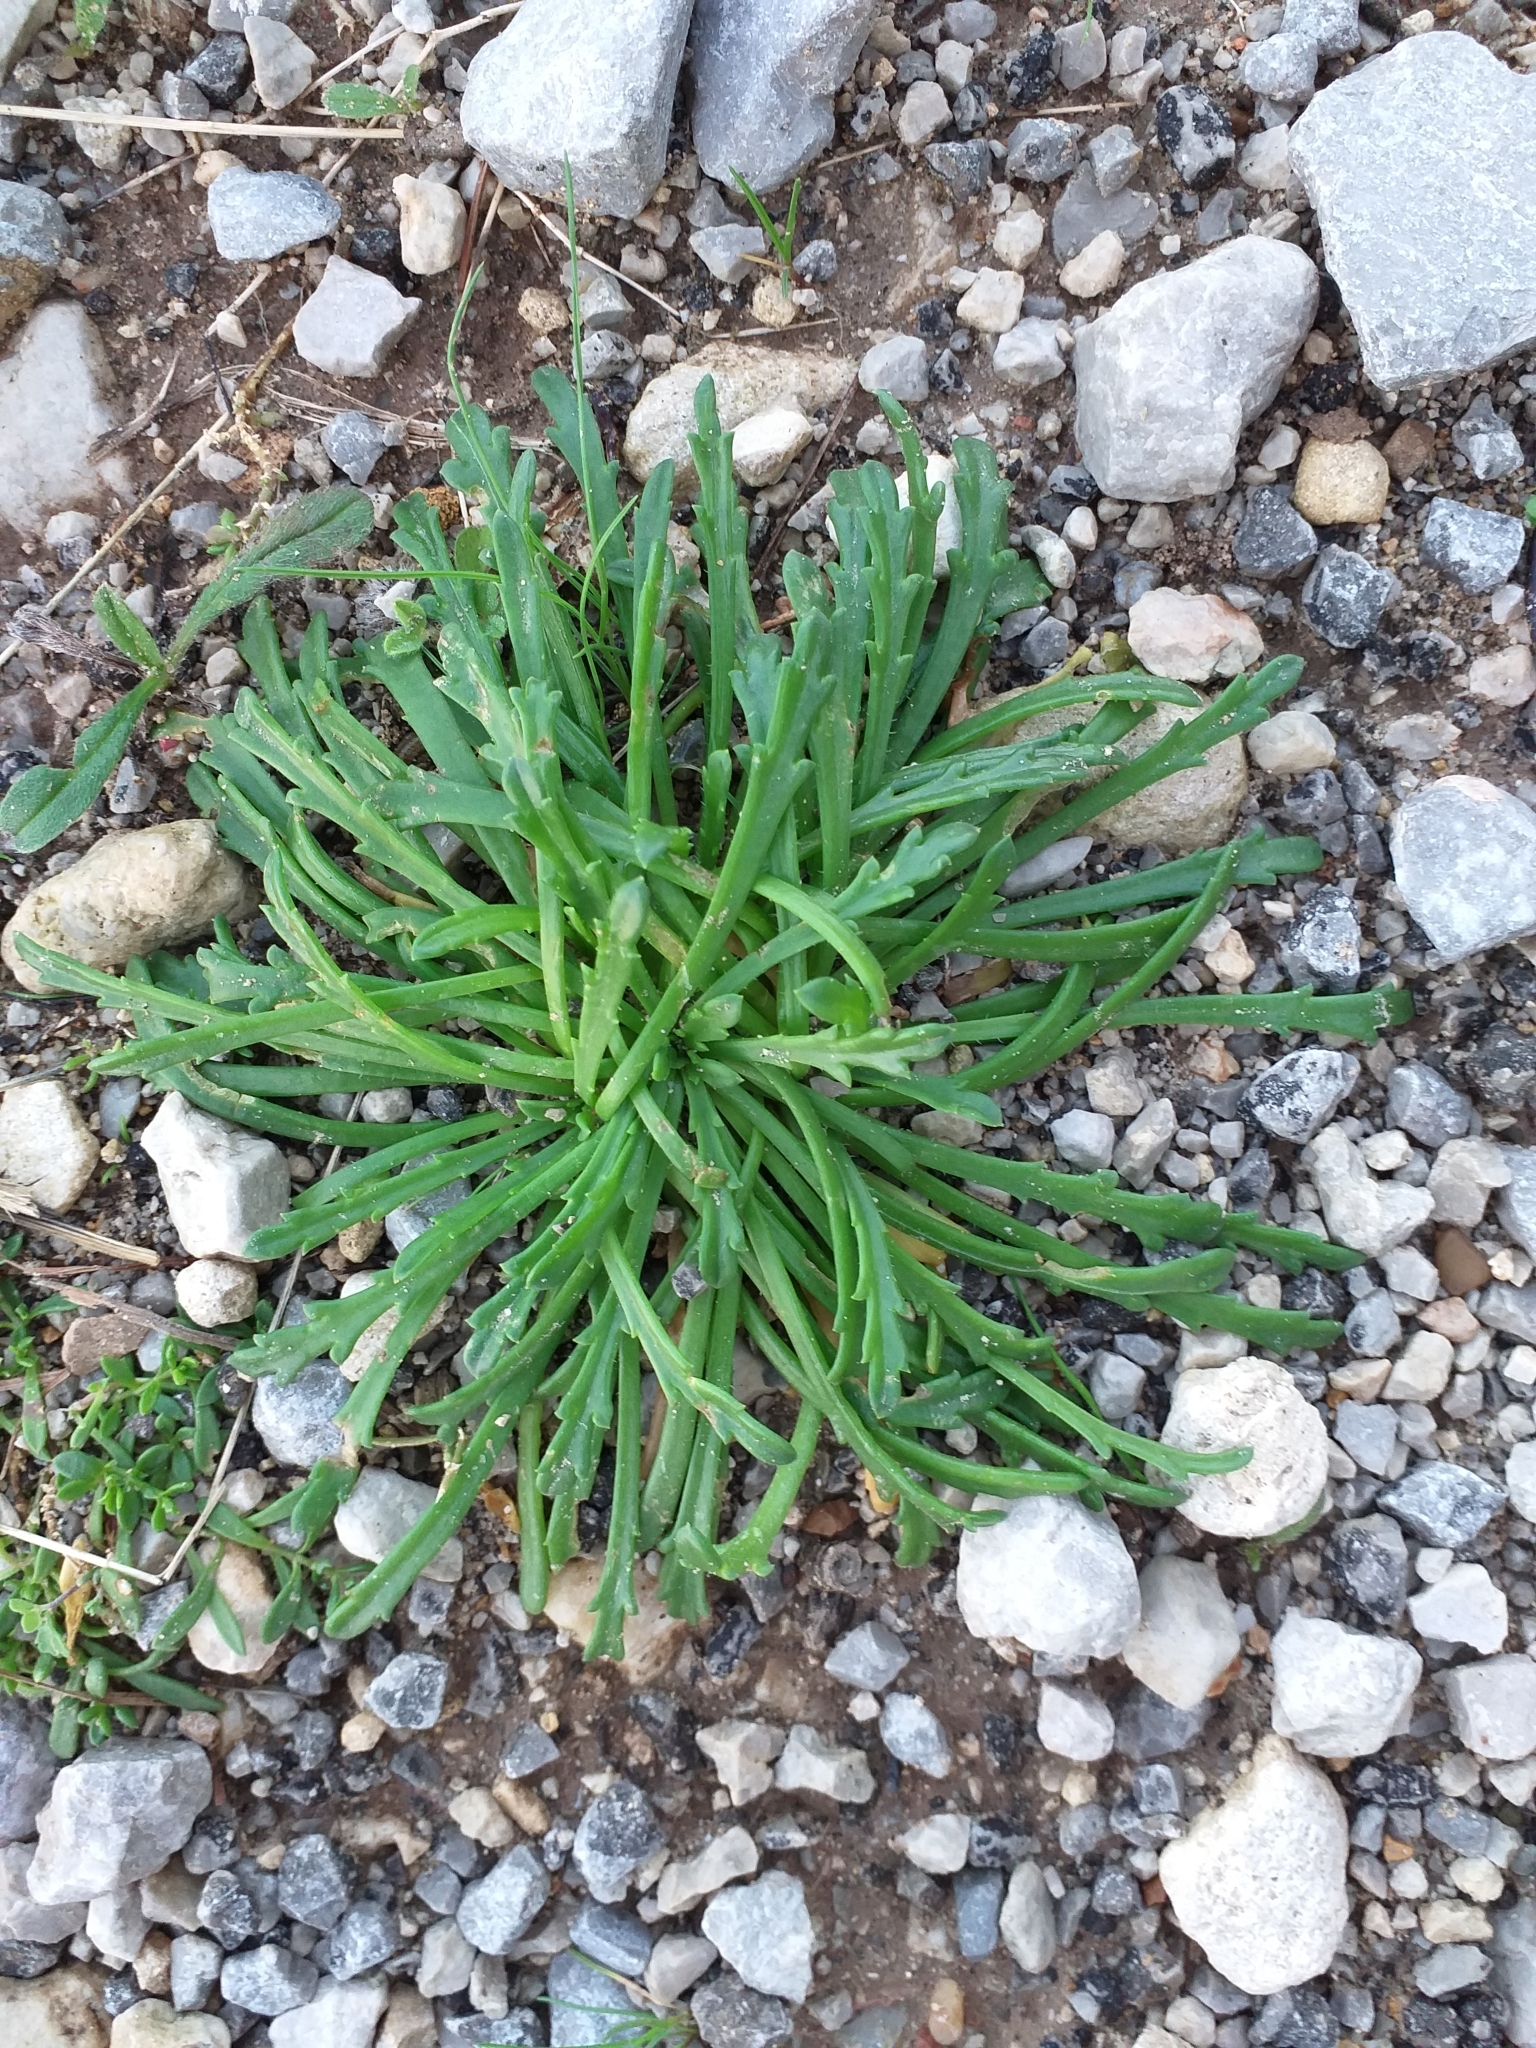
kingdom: Plantae
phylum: Tracheophyta
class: Magnoliopsida
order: Lamiales
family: Plantaginaceae
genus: Plantago
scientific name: Plantago coronopus
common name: Buck's-horn plantain
